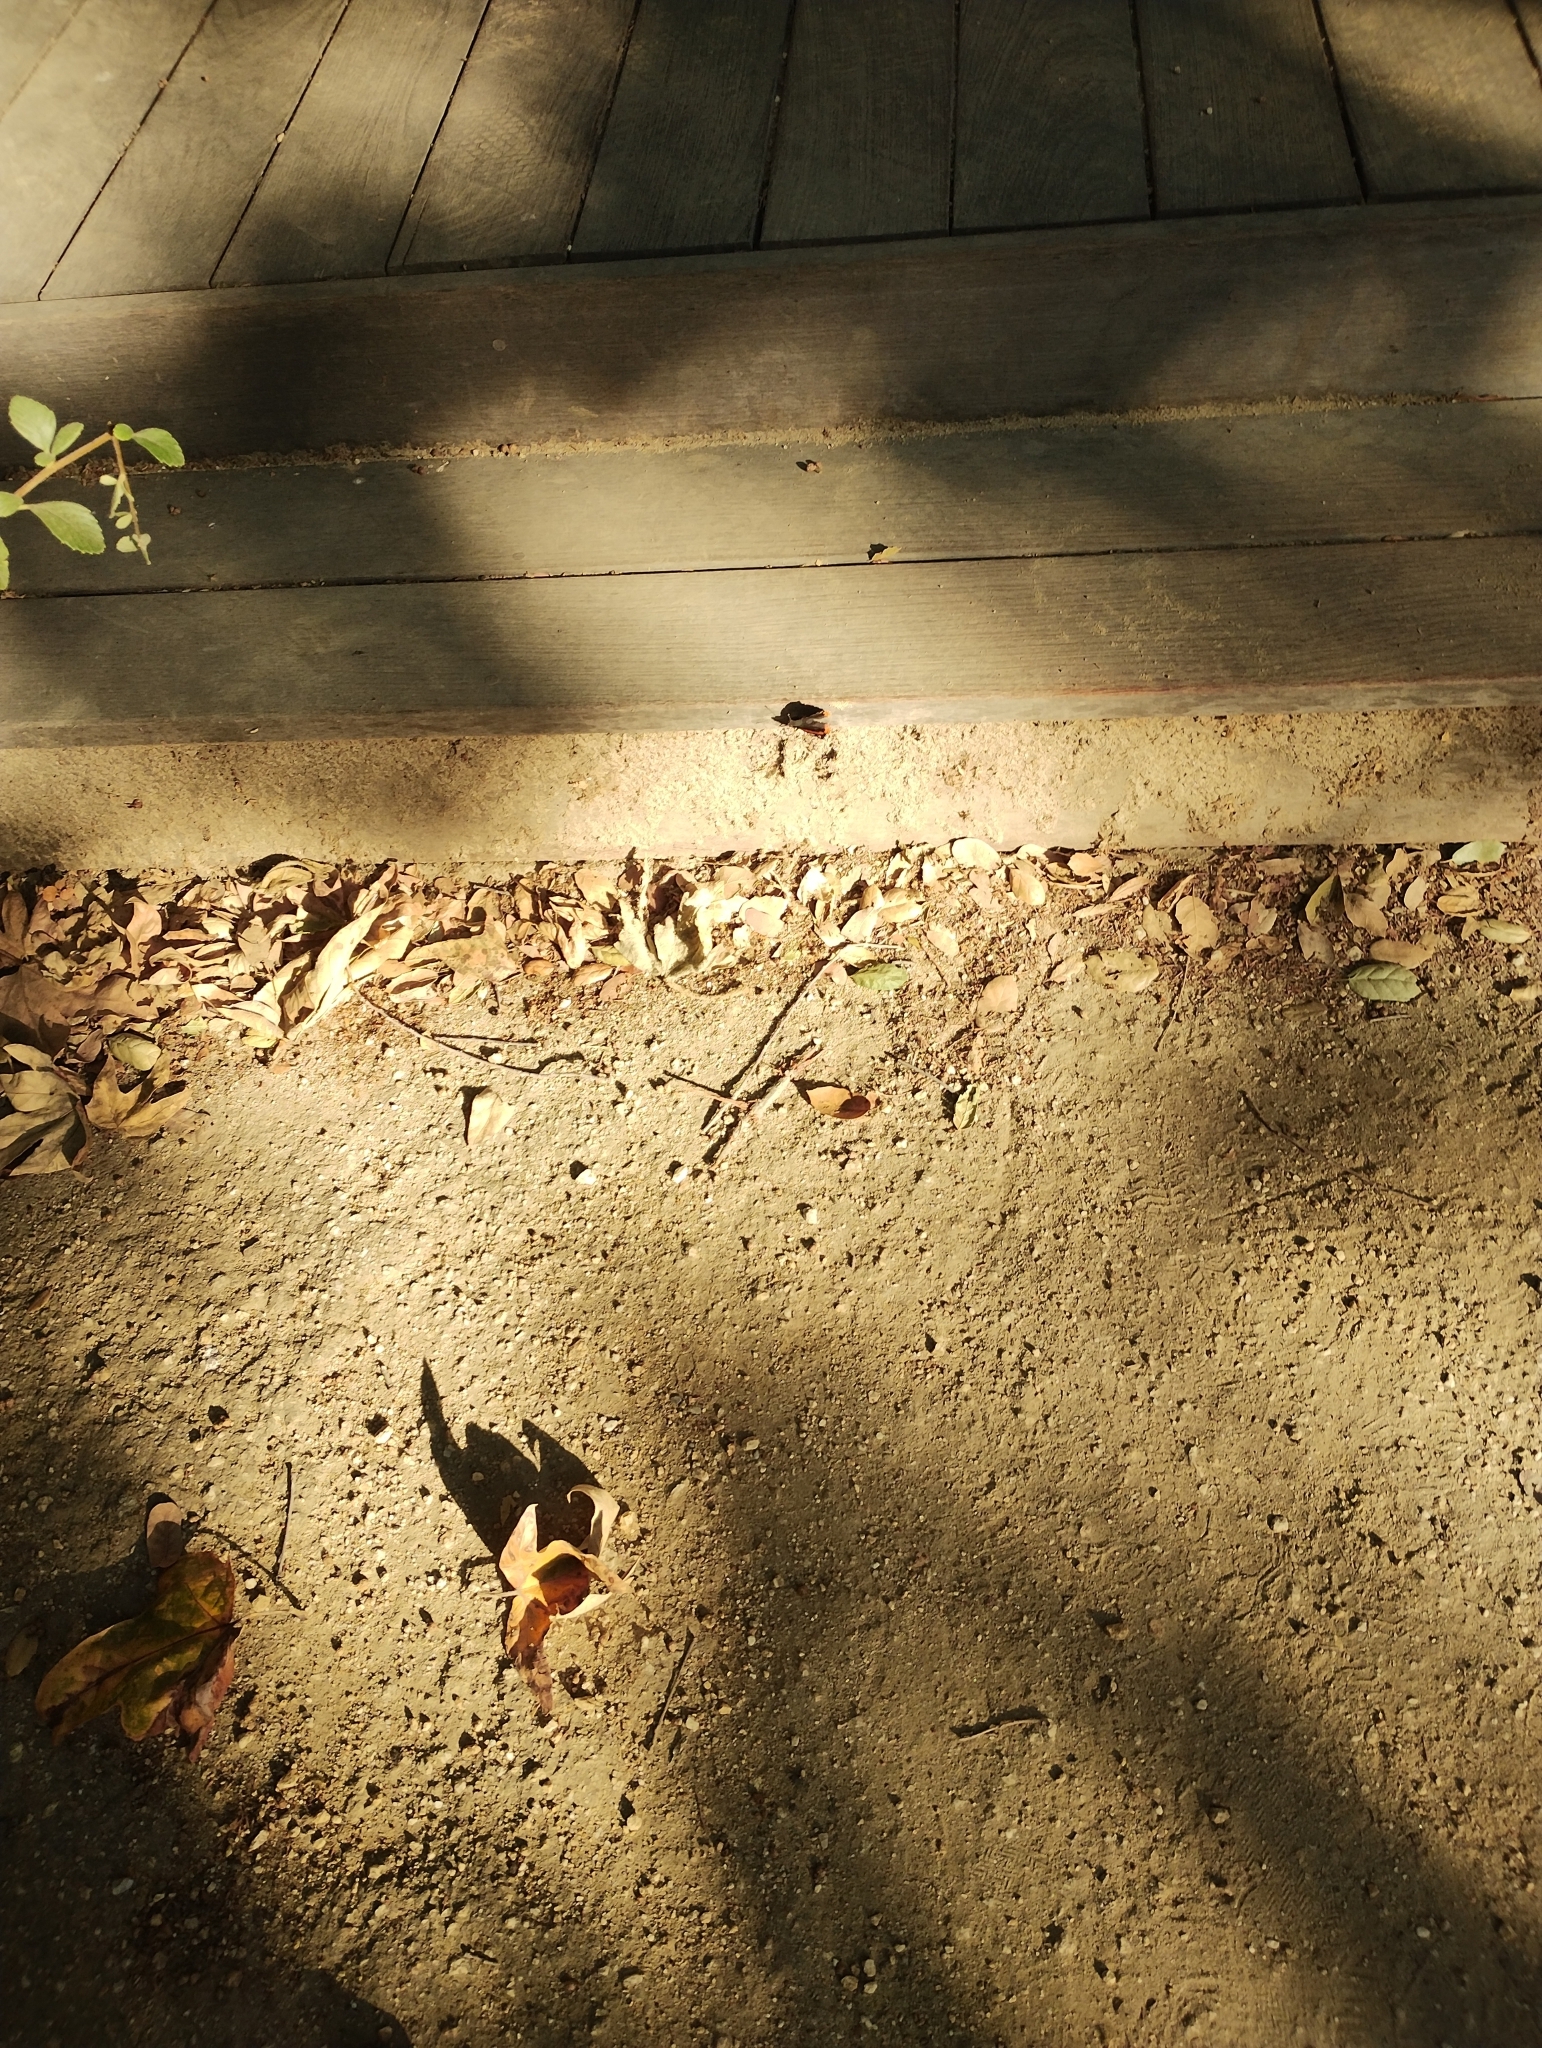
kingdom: Animalia
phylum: Arthropoda
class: Insecta
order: Lepidoptera
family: Nymphalidae
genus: Vanessa
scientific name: Vanessa atalanta
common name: Red admiral
